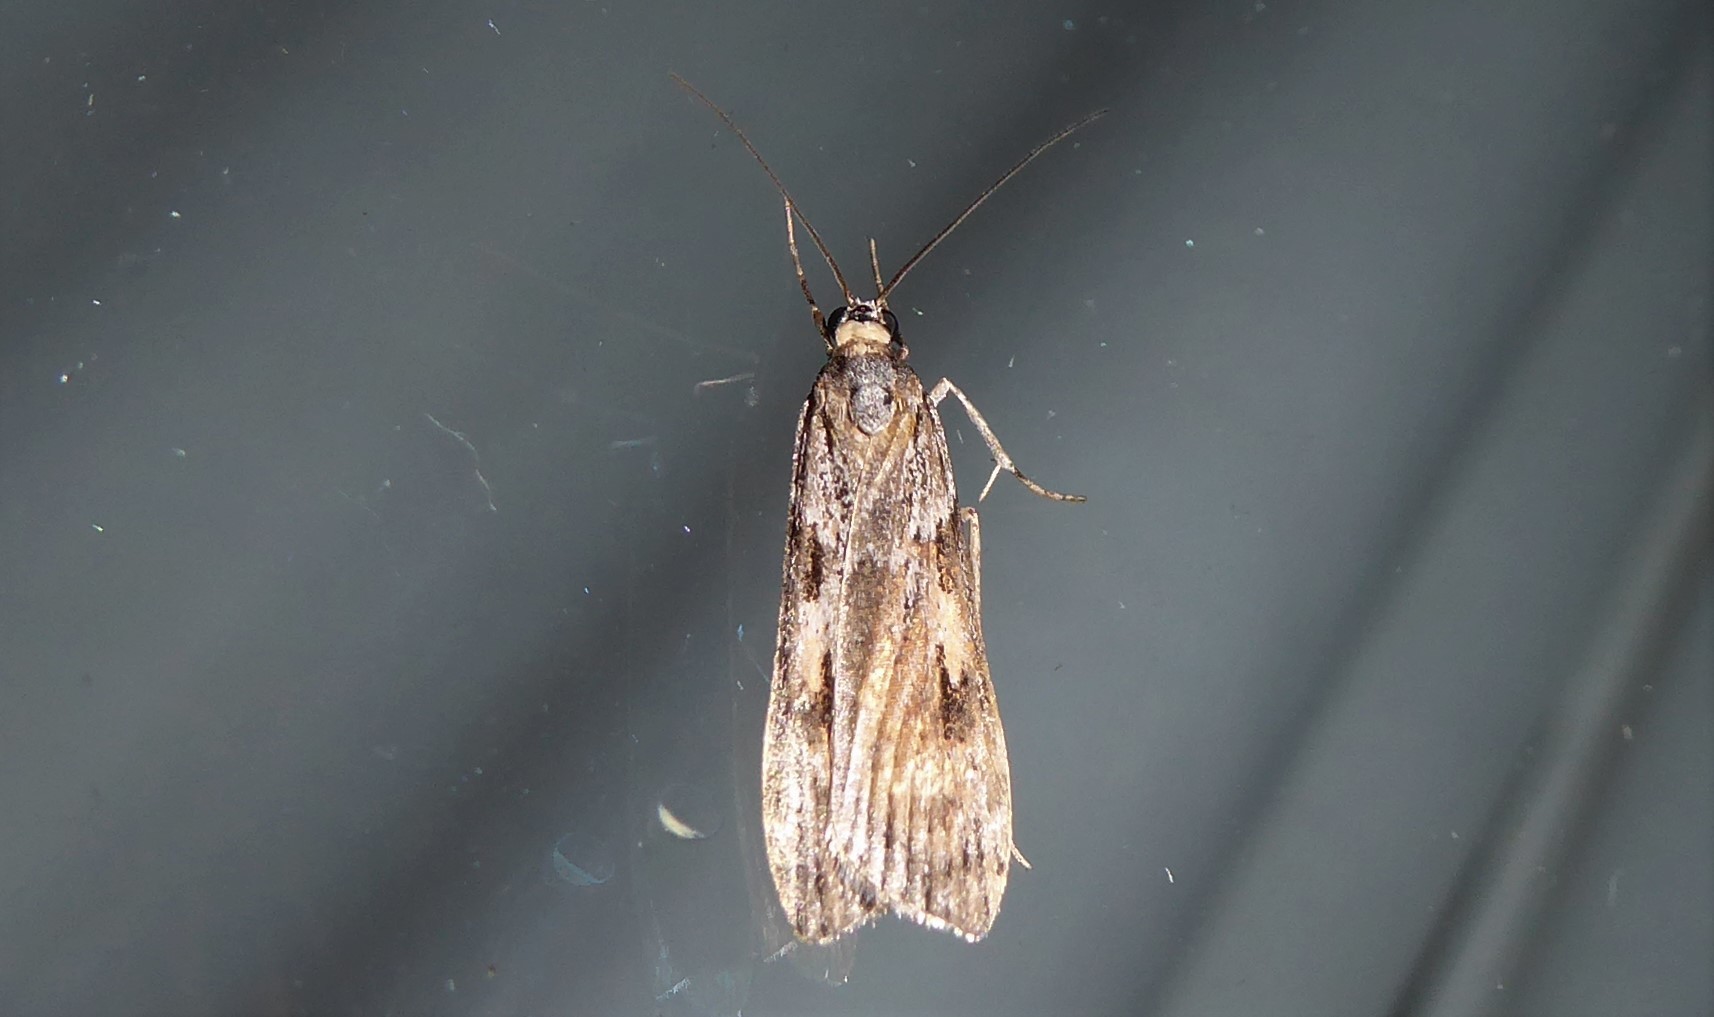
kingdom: Animalia
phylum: Arthropoda
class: Insecta
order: Lepidoptera
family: Crambidae
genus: Scoparia
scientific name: Scoparia halopis
